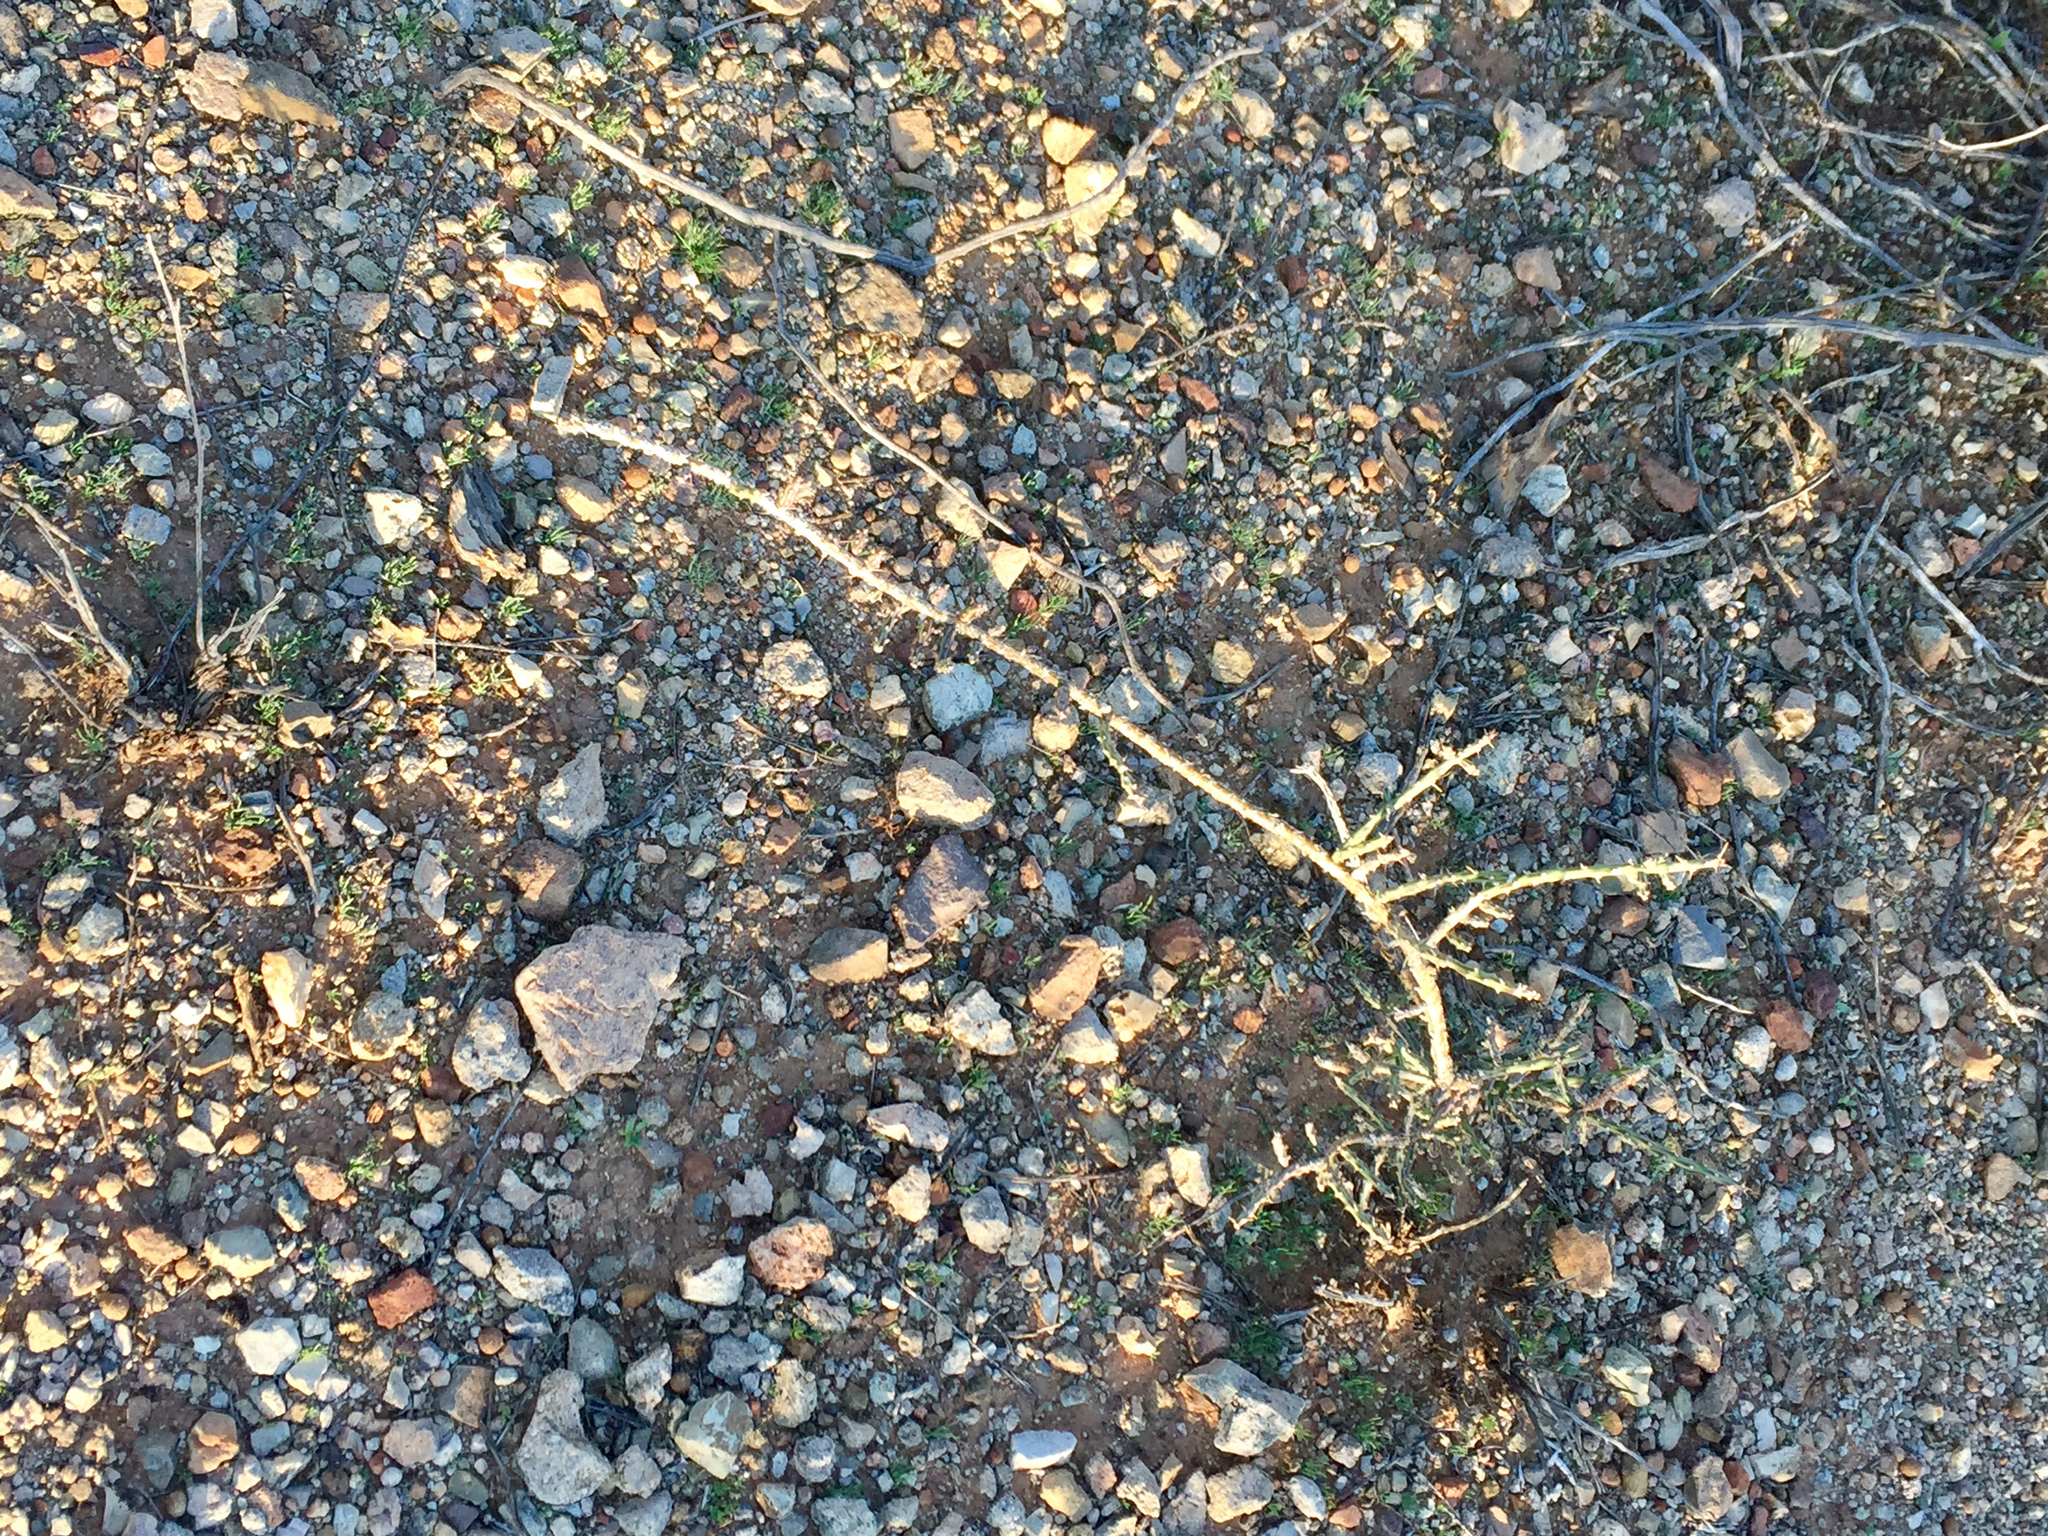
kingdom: Plantae
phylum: Tracheophyta
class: Magnoliopsida
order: Caryophyllales
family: Cactaceae
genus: Cylindropuntia
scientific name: Cylindropuntia leptocaulis
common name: Christmas cactus
